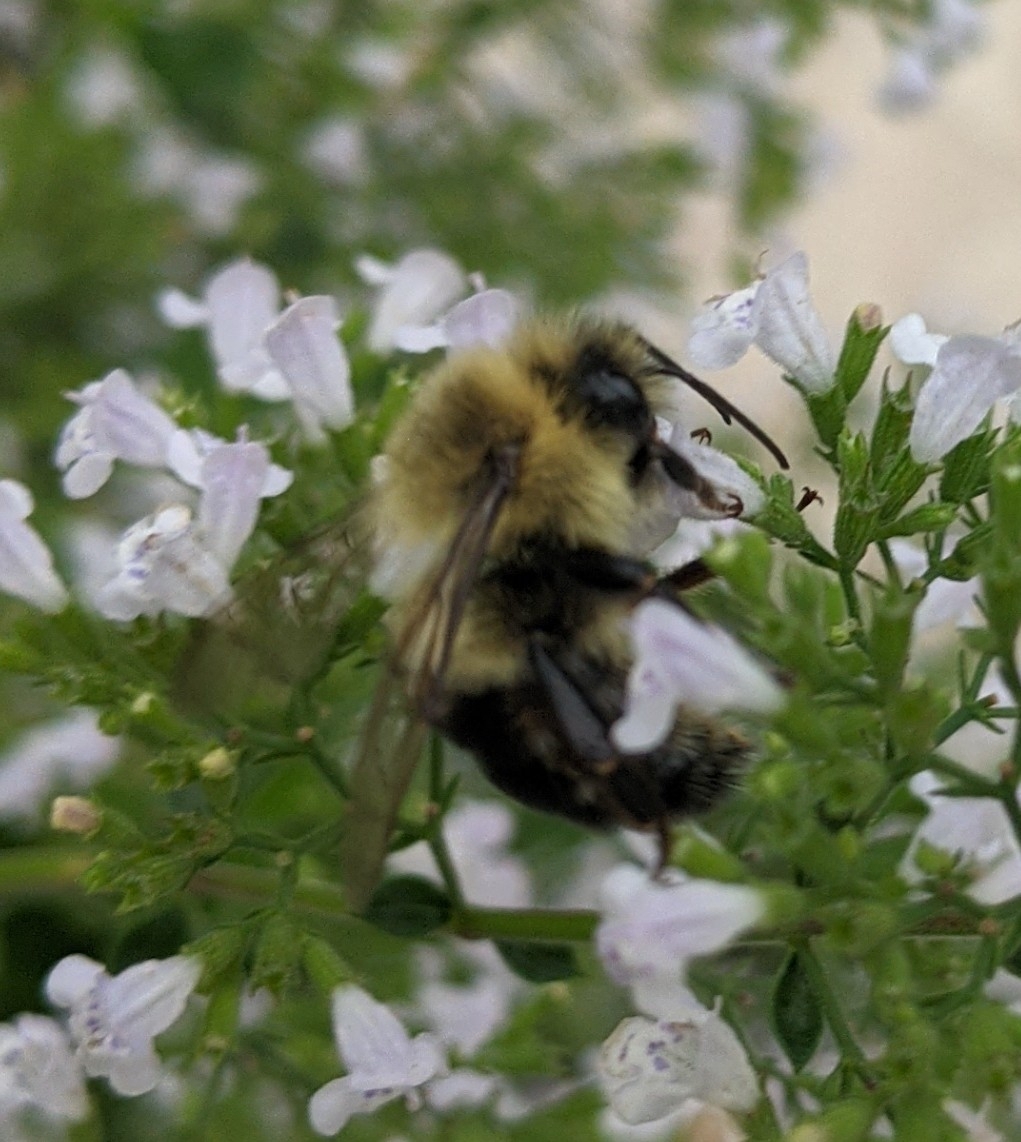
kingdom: Animalia
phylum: Arthropoda
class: Insecta
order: Hymenoptera
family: Apidae
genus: Bombus
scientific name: Bombus impatiens
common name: Common eastern bumble bee
